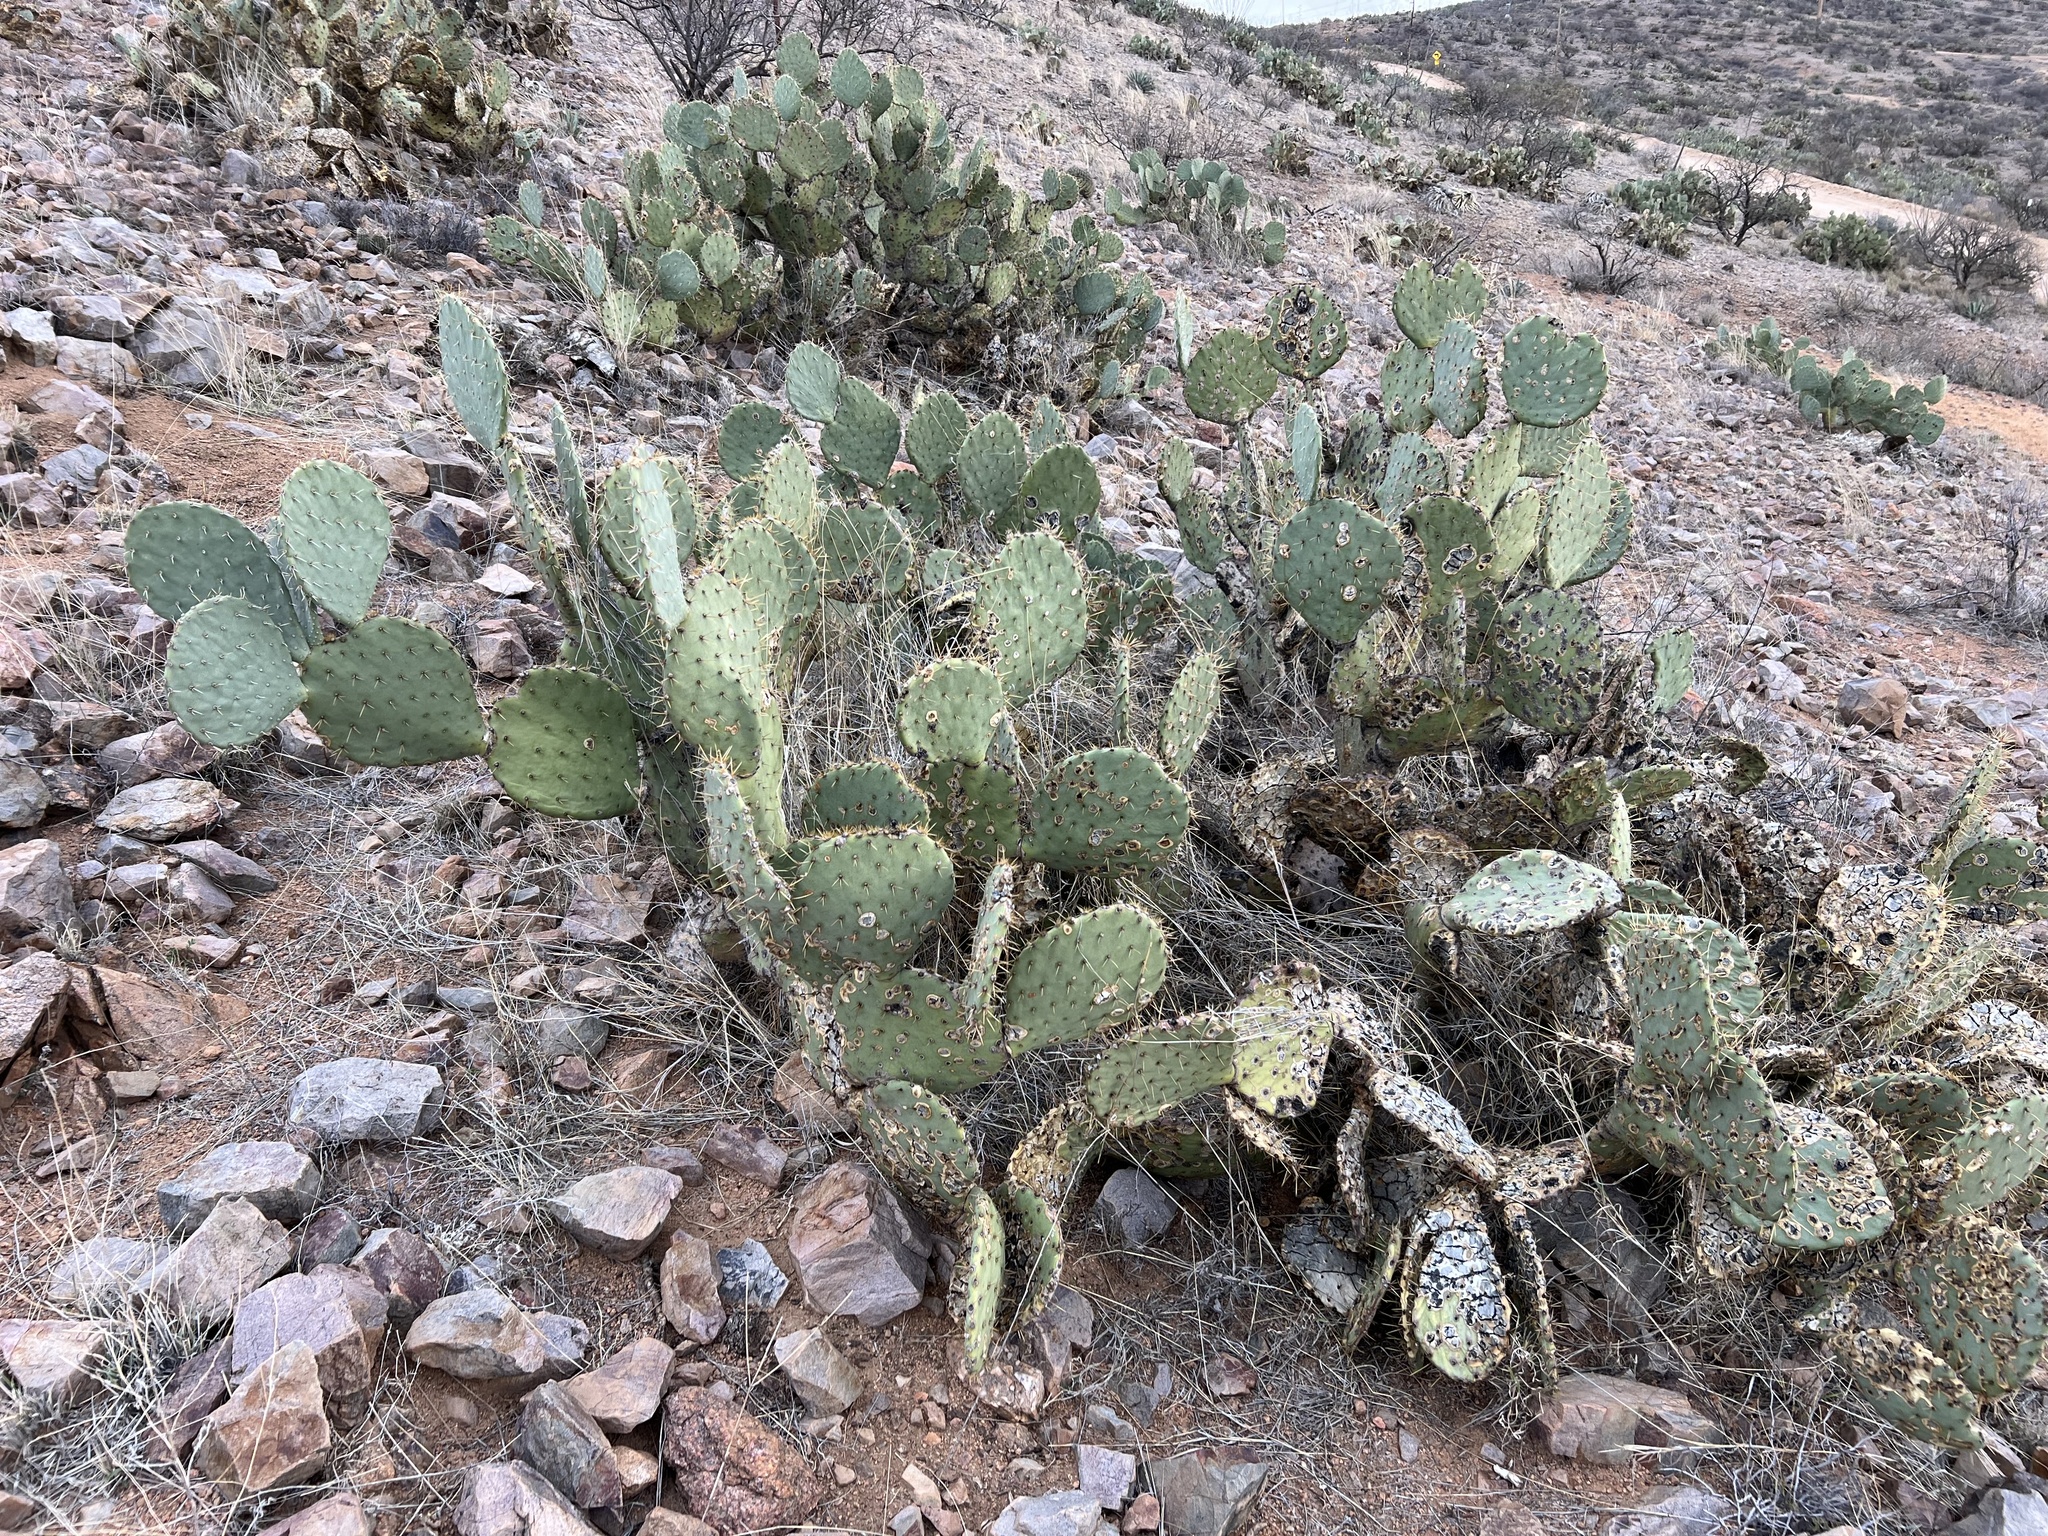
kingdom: Plantae
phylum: Tracheophyta
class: Magnoliopsida
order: Caryophyllales
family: Cactaceae
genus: Opuntia
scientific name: Opuntia engelmannii
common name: Cactus-apple
